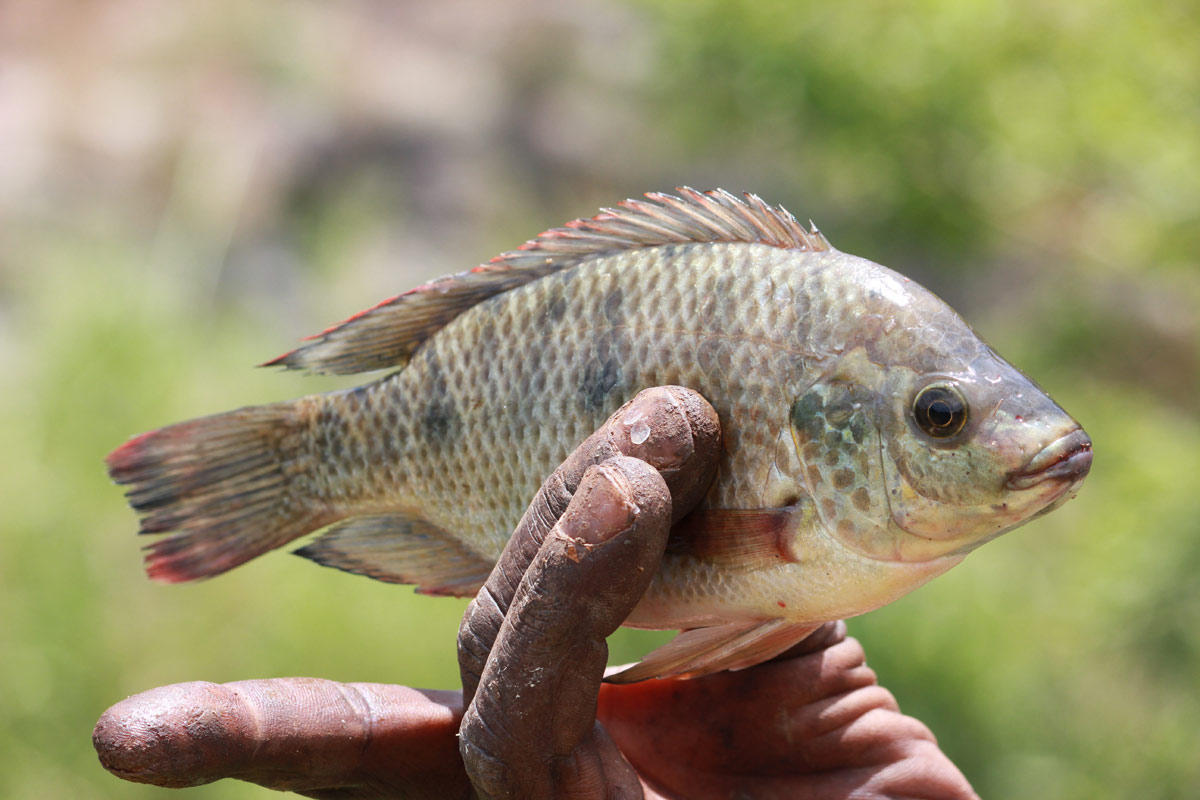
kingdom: Animalia
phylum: Chordata
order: Perciformes
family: Cichlidae
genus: Oreochromis
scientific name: Oreochromis mossambicus
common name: Mozambique tilapia
